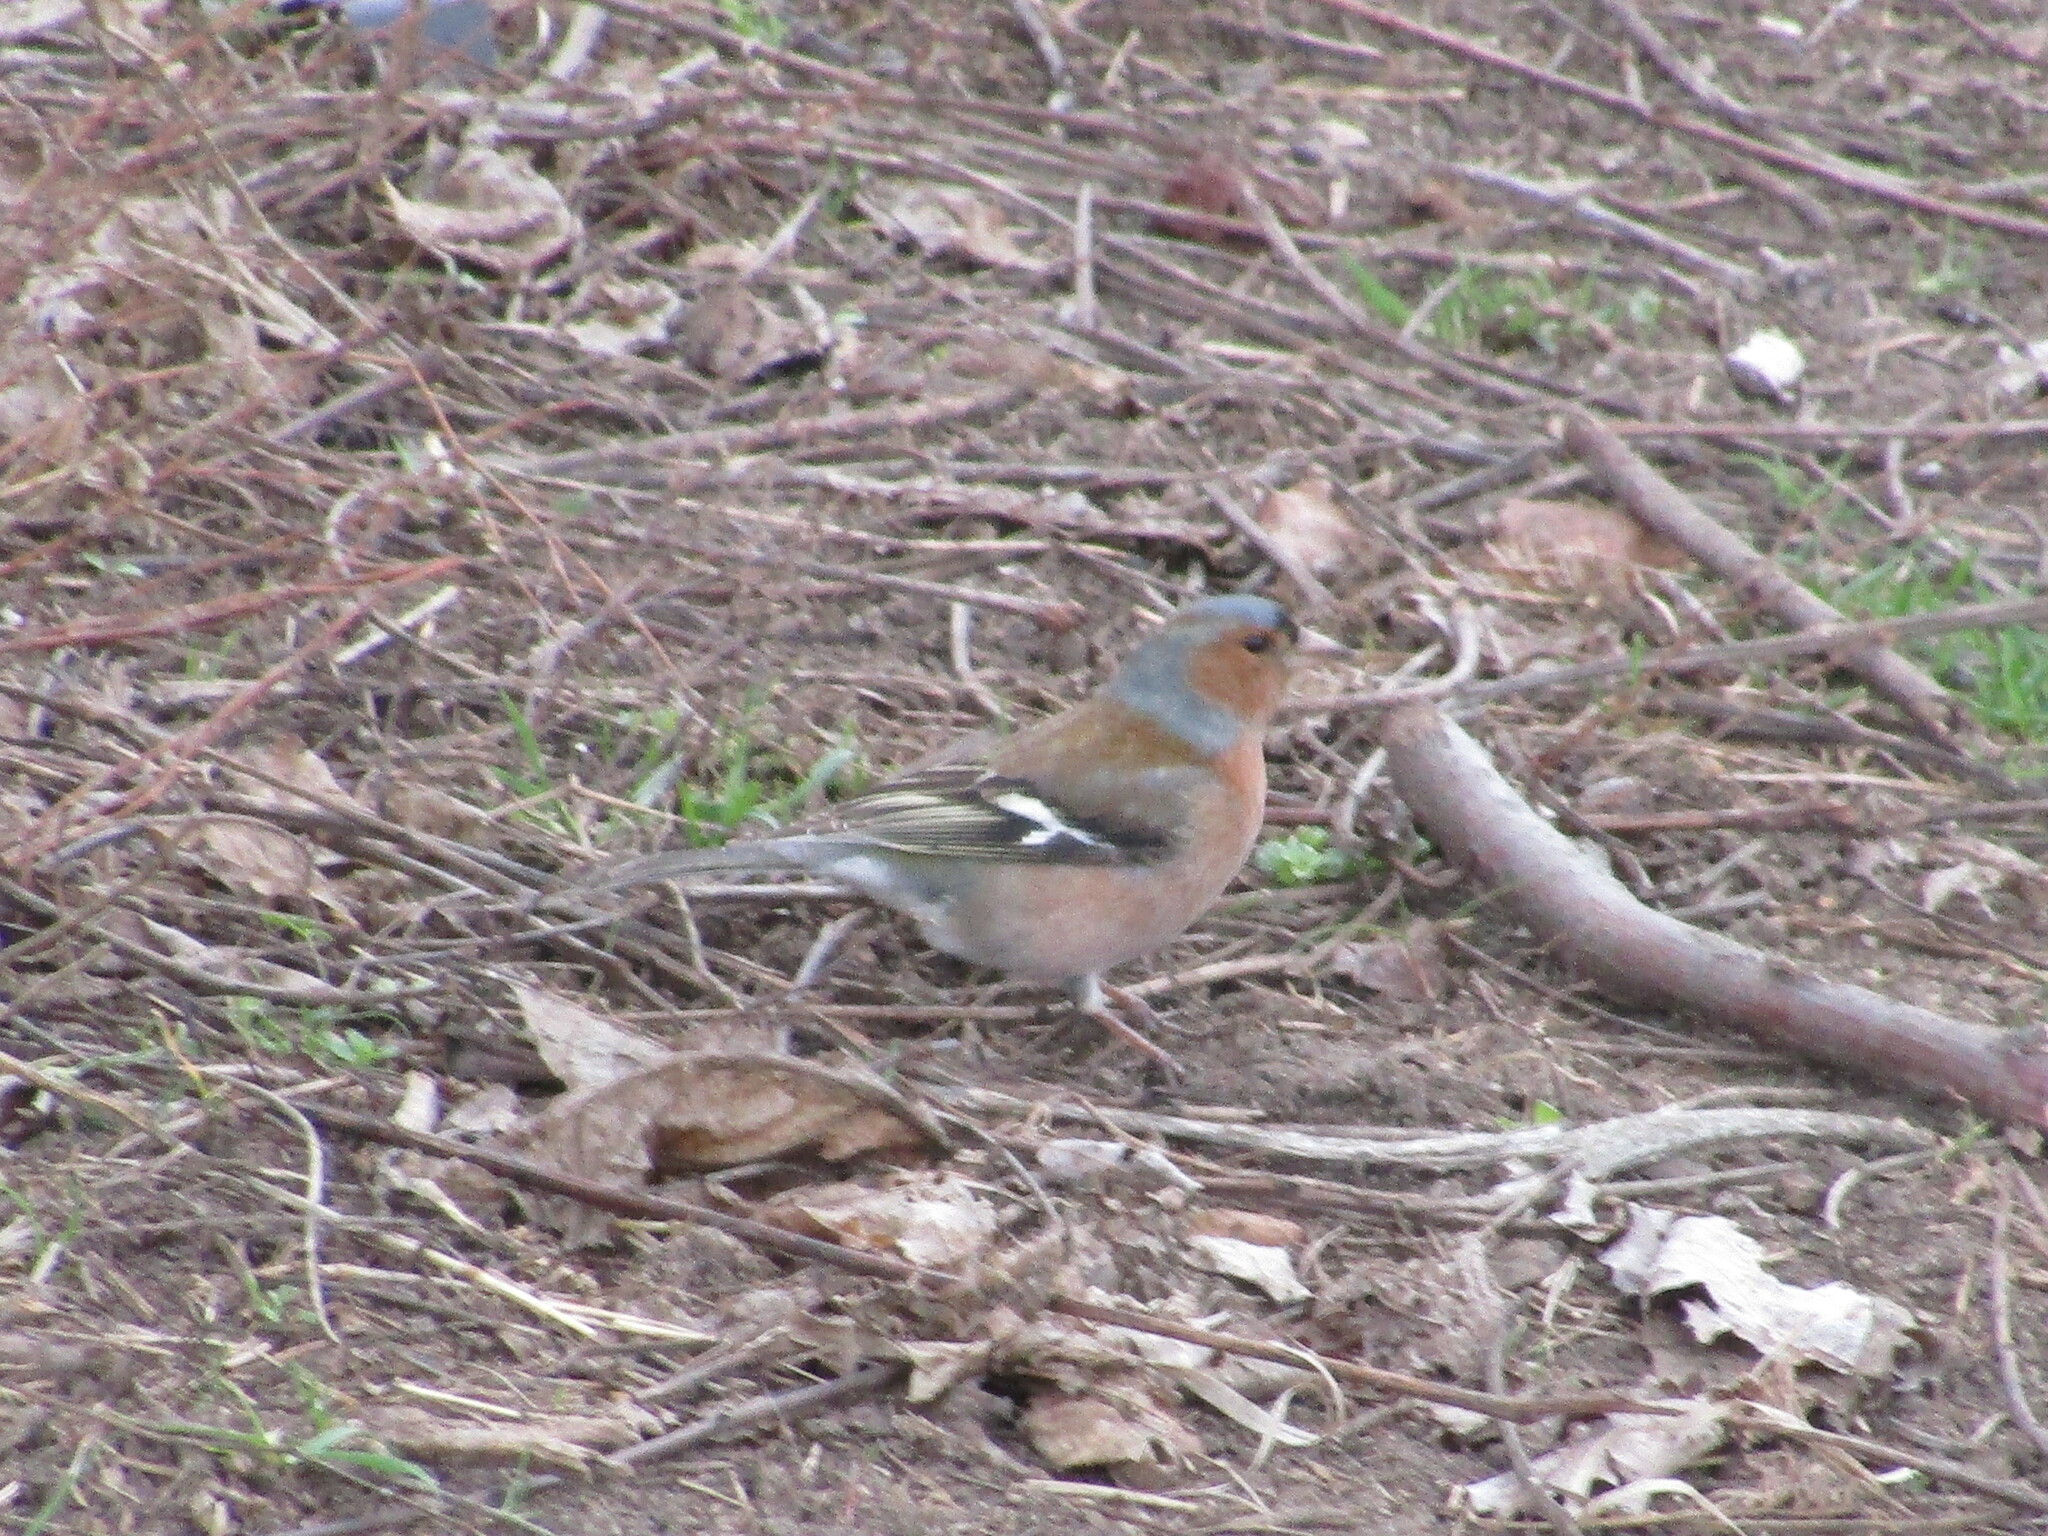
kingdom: Animalia
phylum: Chordata
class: Aves
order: Passeriformes
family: Fringillidae
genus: Fringilla
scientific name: Fringilla coelebs
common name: Common chaffinch
